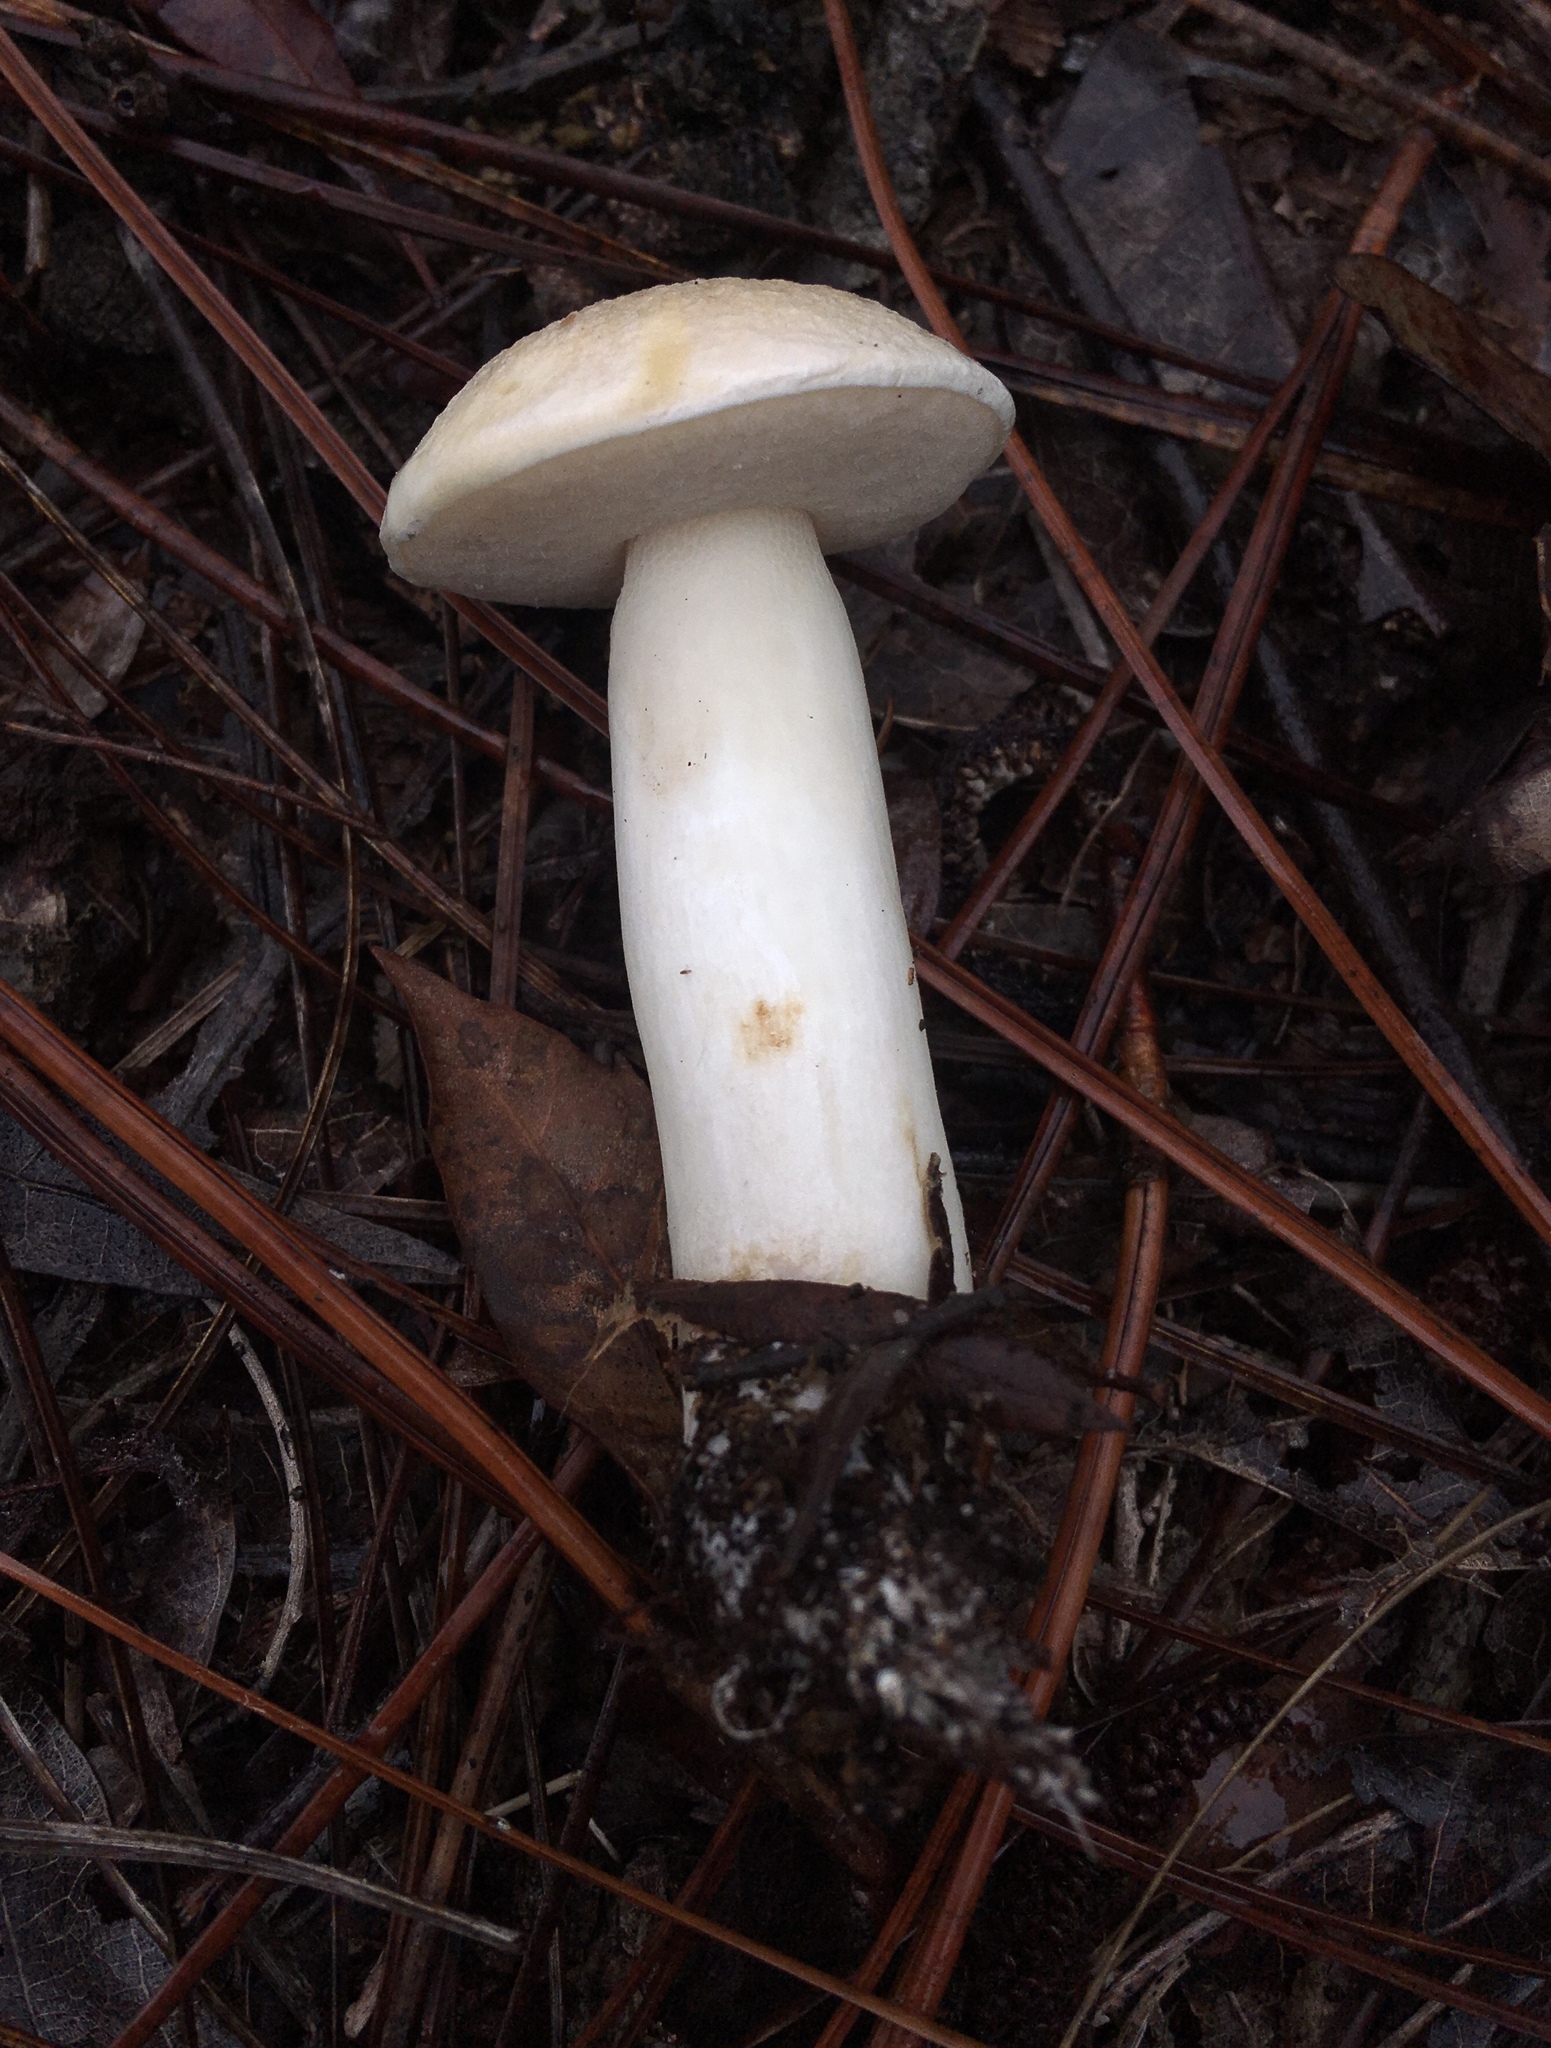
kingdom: Fungi
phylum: Basidiomycota
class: Agaricomycetes
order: Boletales
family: Boletaceae
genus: Imleria
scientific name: Imleria pallida
